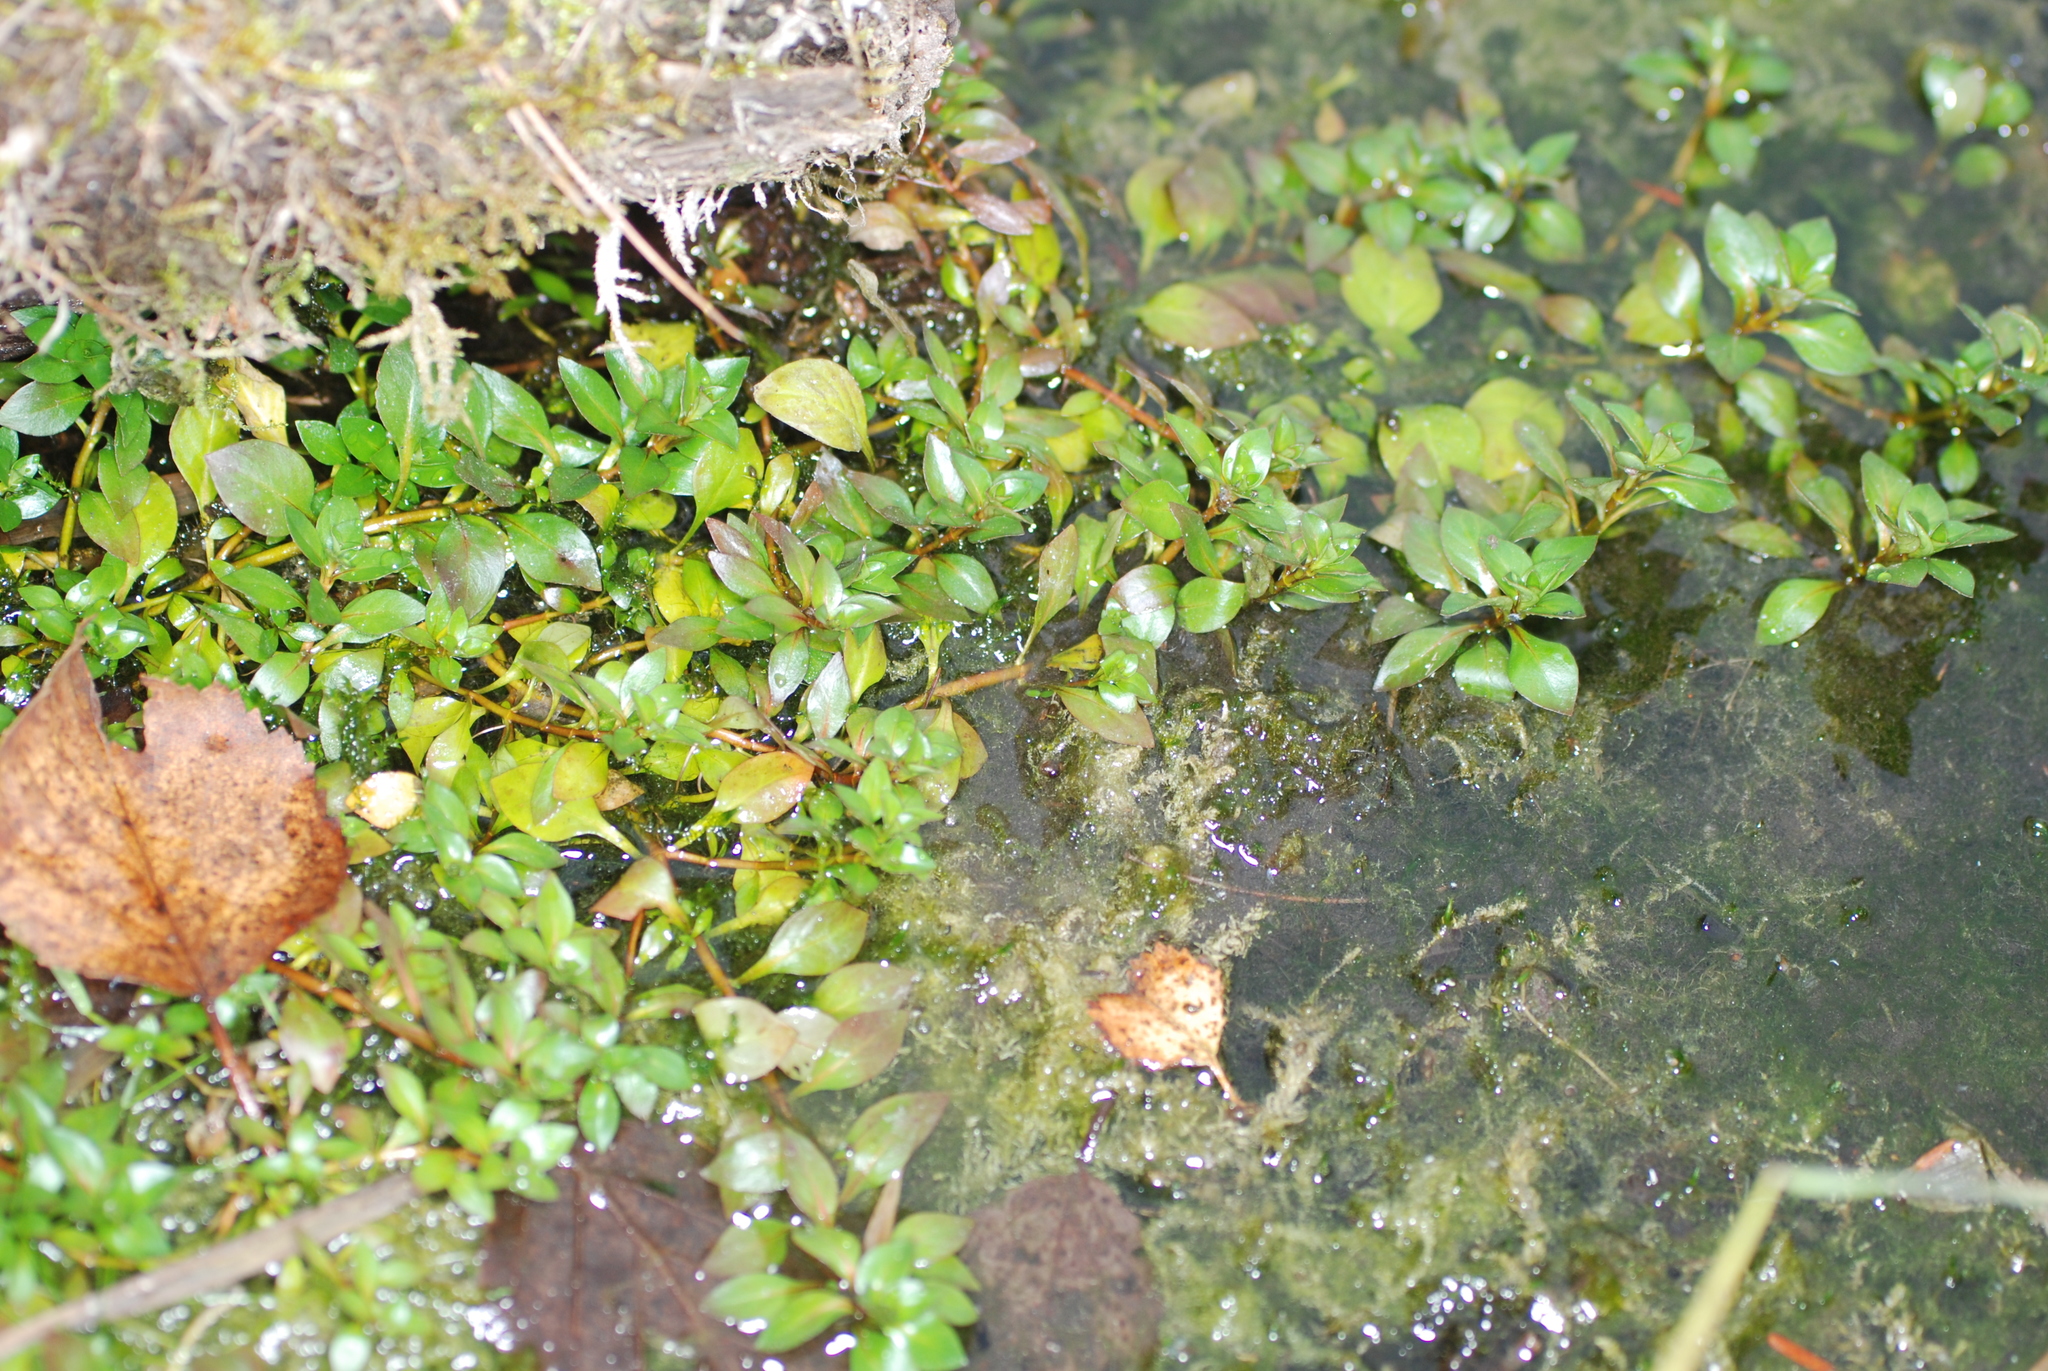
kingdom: Plantae
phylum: Tracheophyta
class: Magnoliopsida
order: Myrtales
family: Onagraceae
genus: Ludwigia
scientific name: Ludwigia palustris
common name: Hampshire-purslane
